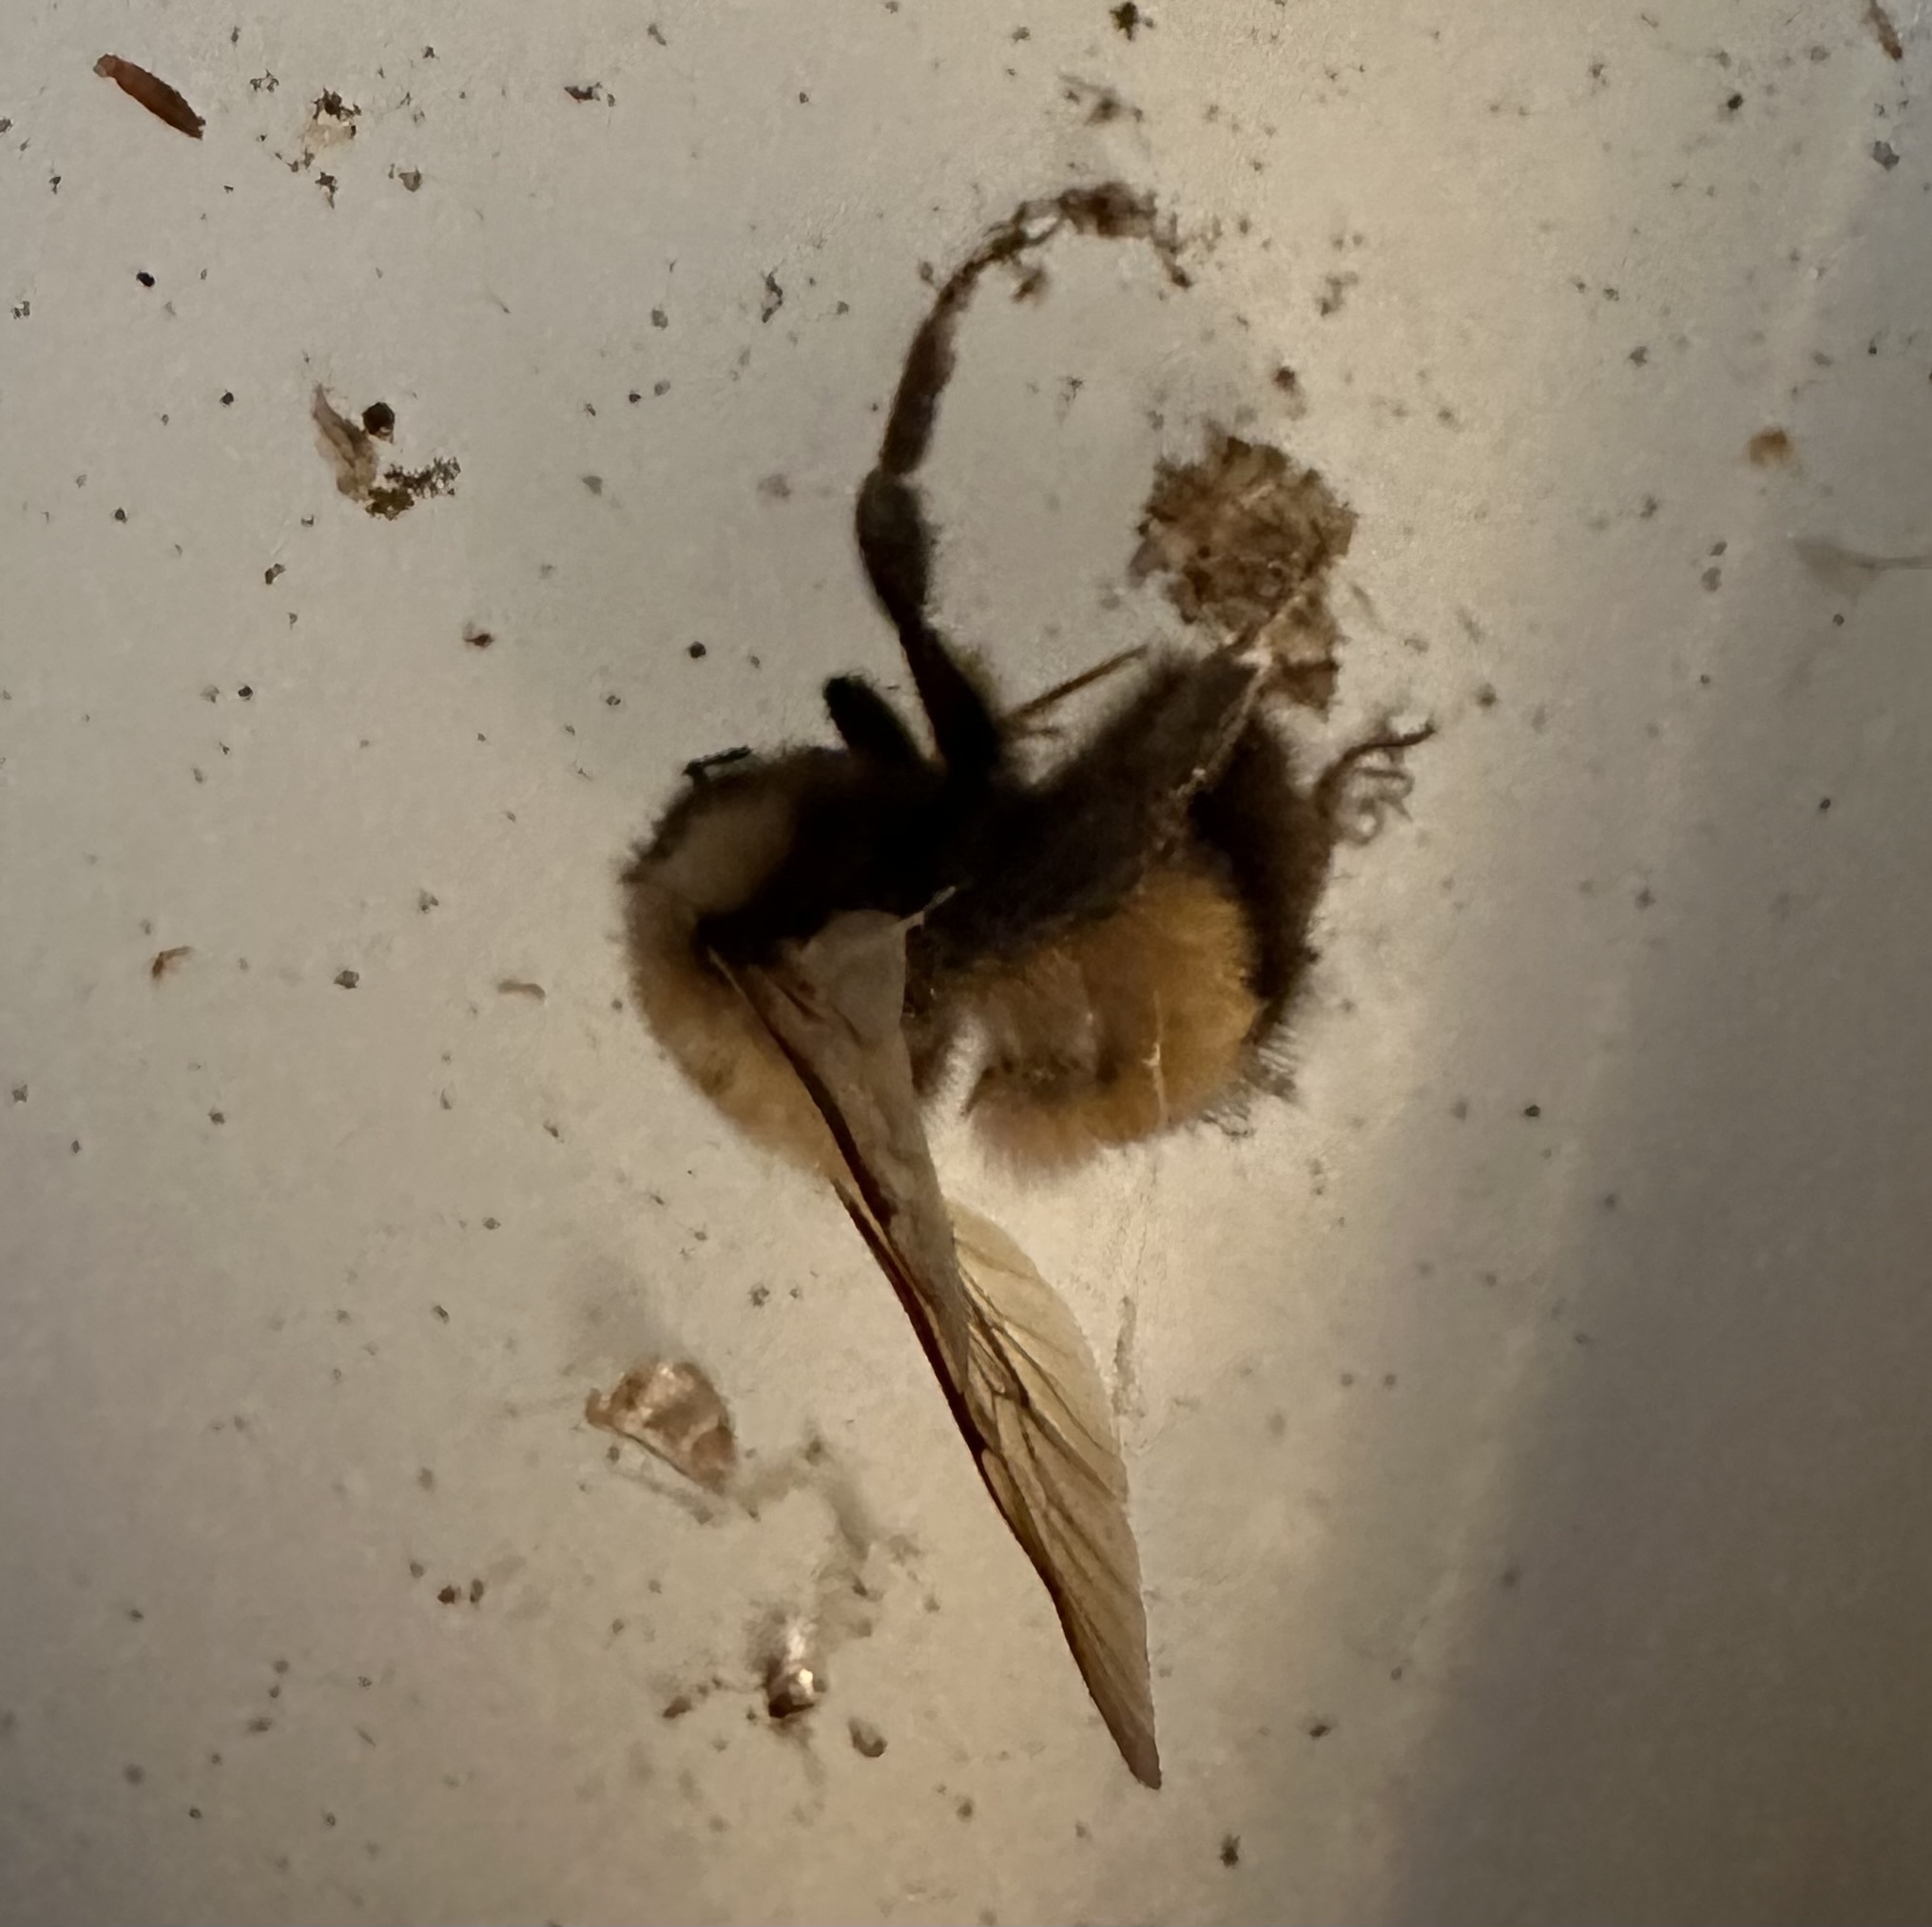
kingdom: Animalia
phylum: Arthropoda
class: Insecta
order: Hymenoptera
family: Apidae
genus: Bombus
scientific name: Bombus perplexus
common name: Confusing bumble bee
